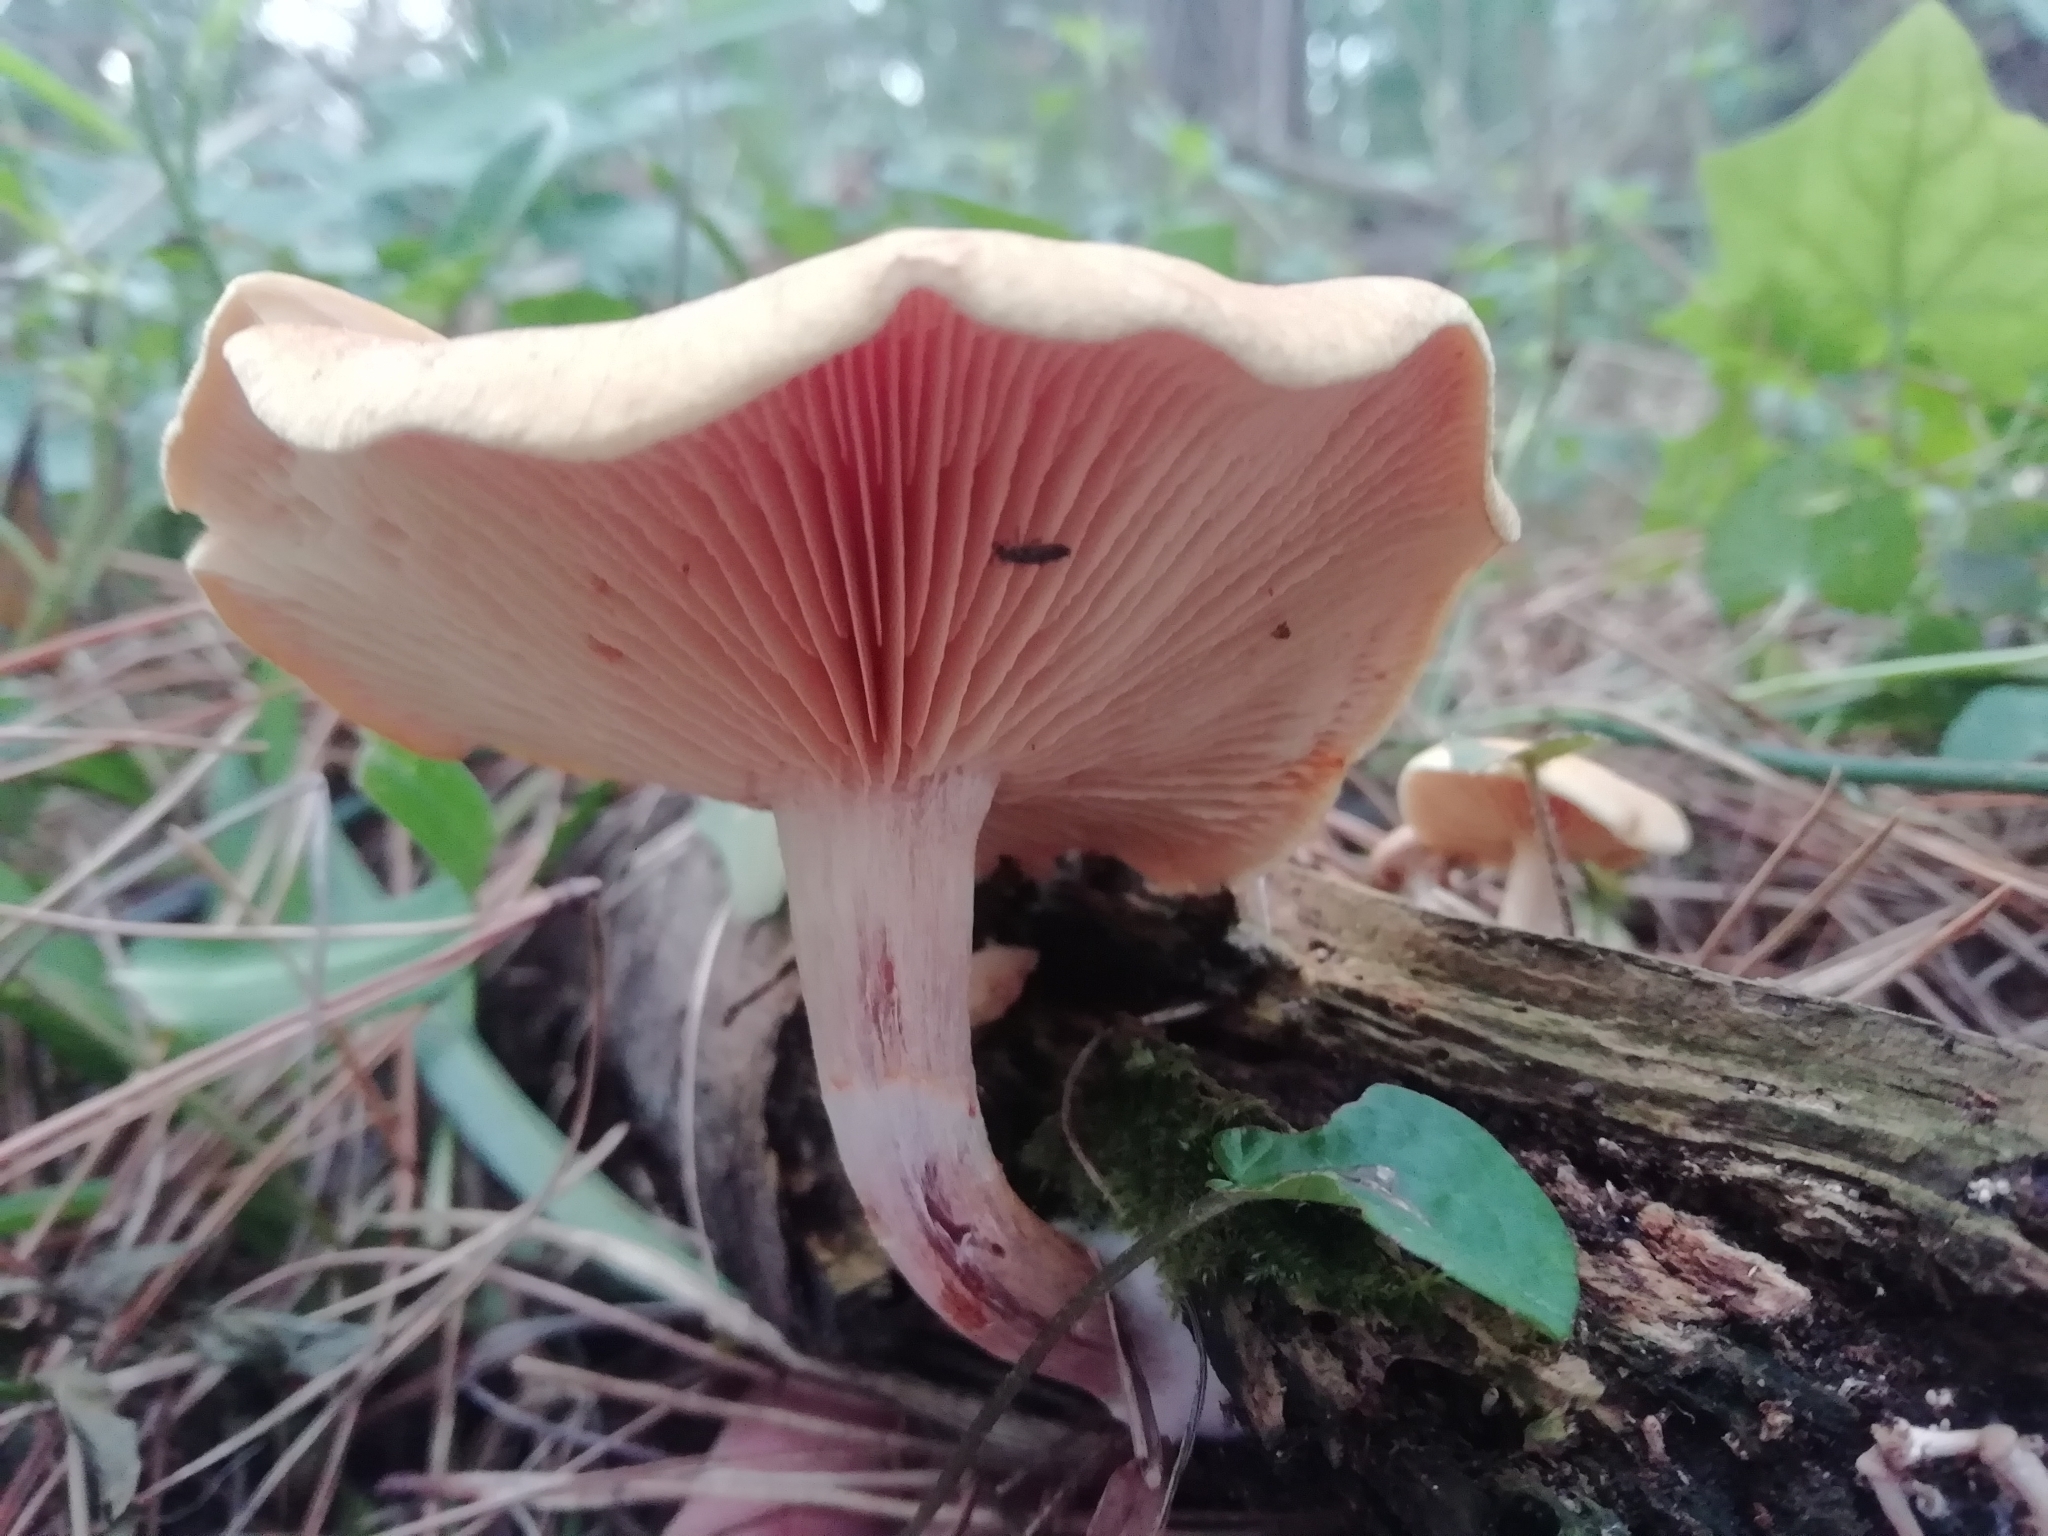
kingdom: Fungi
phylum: Basidiomycota
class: Agaricomycetes
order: Agaricales
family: Hymenogastraceae
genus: Gymnopilus
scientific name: Gymnopilus penetrans
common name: Common rustgill
